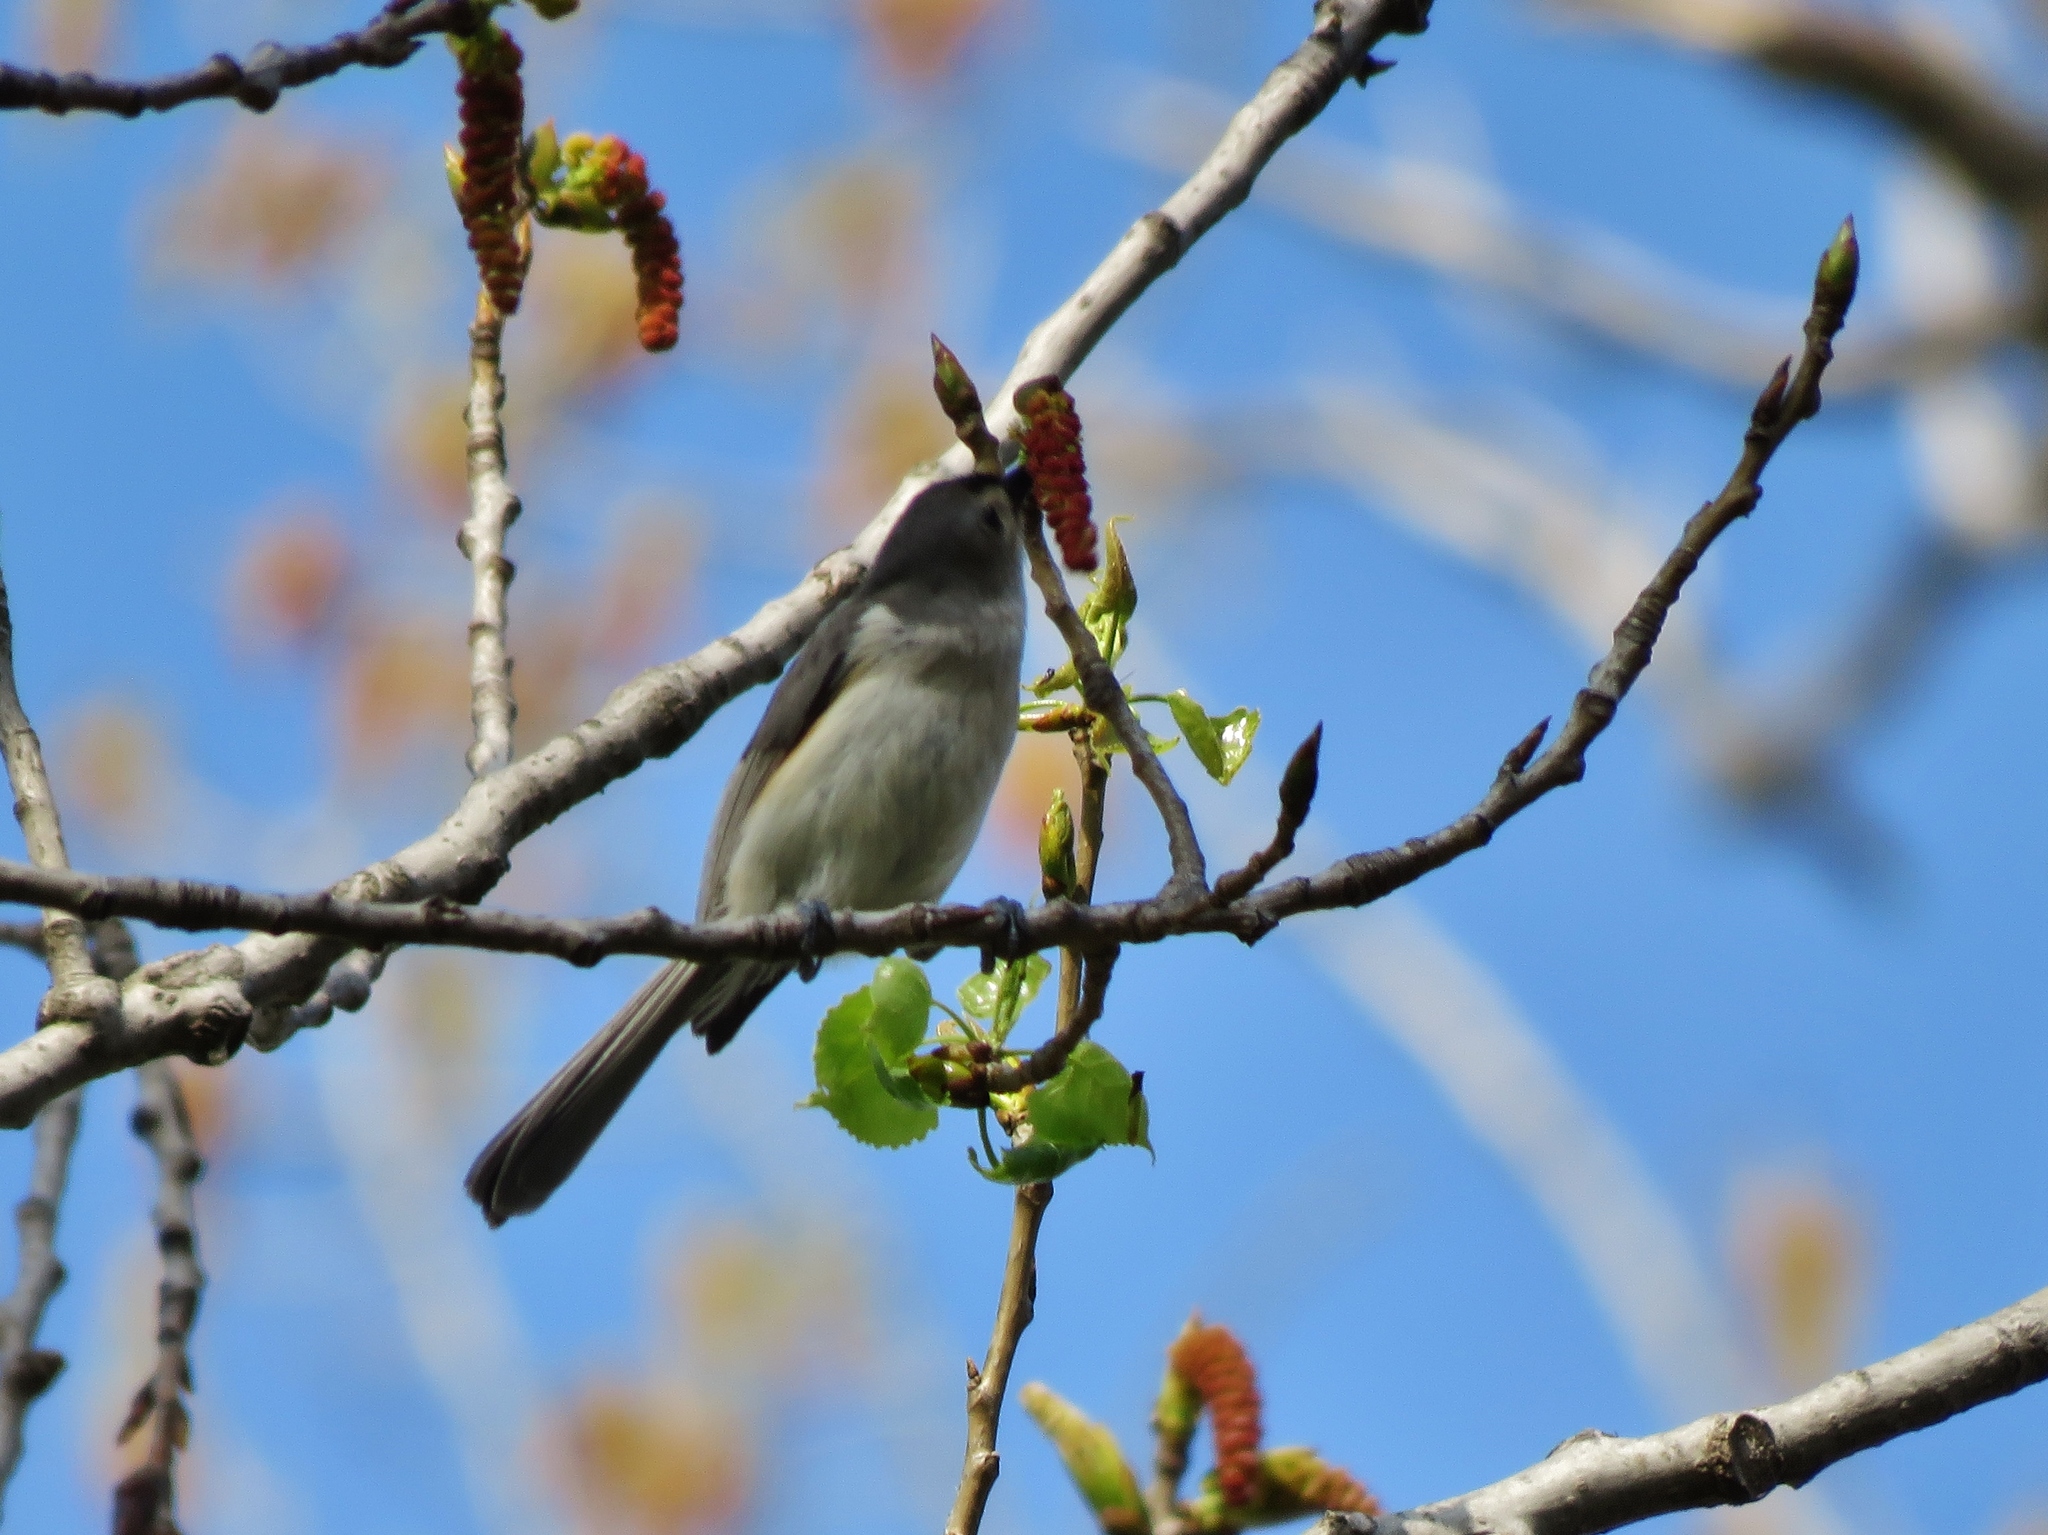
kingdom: Animalia
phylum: Chordata
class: Aves
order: Passeriformes
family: Paridae
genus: Baeolophus
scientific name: Baeolophus bicolor
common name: Tufted titmouse
